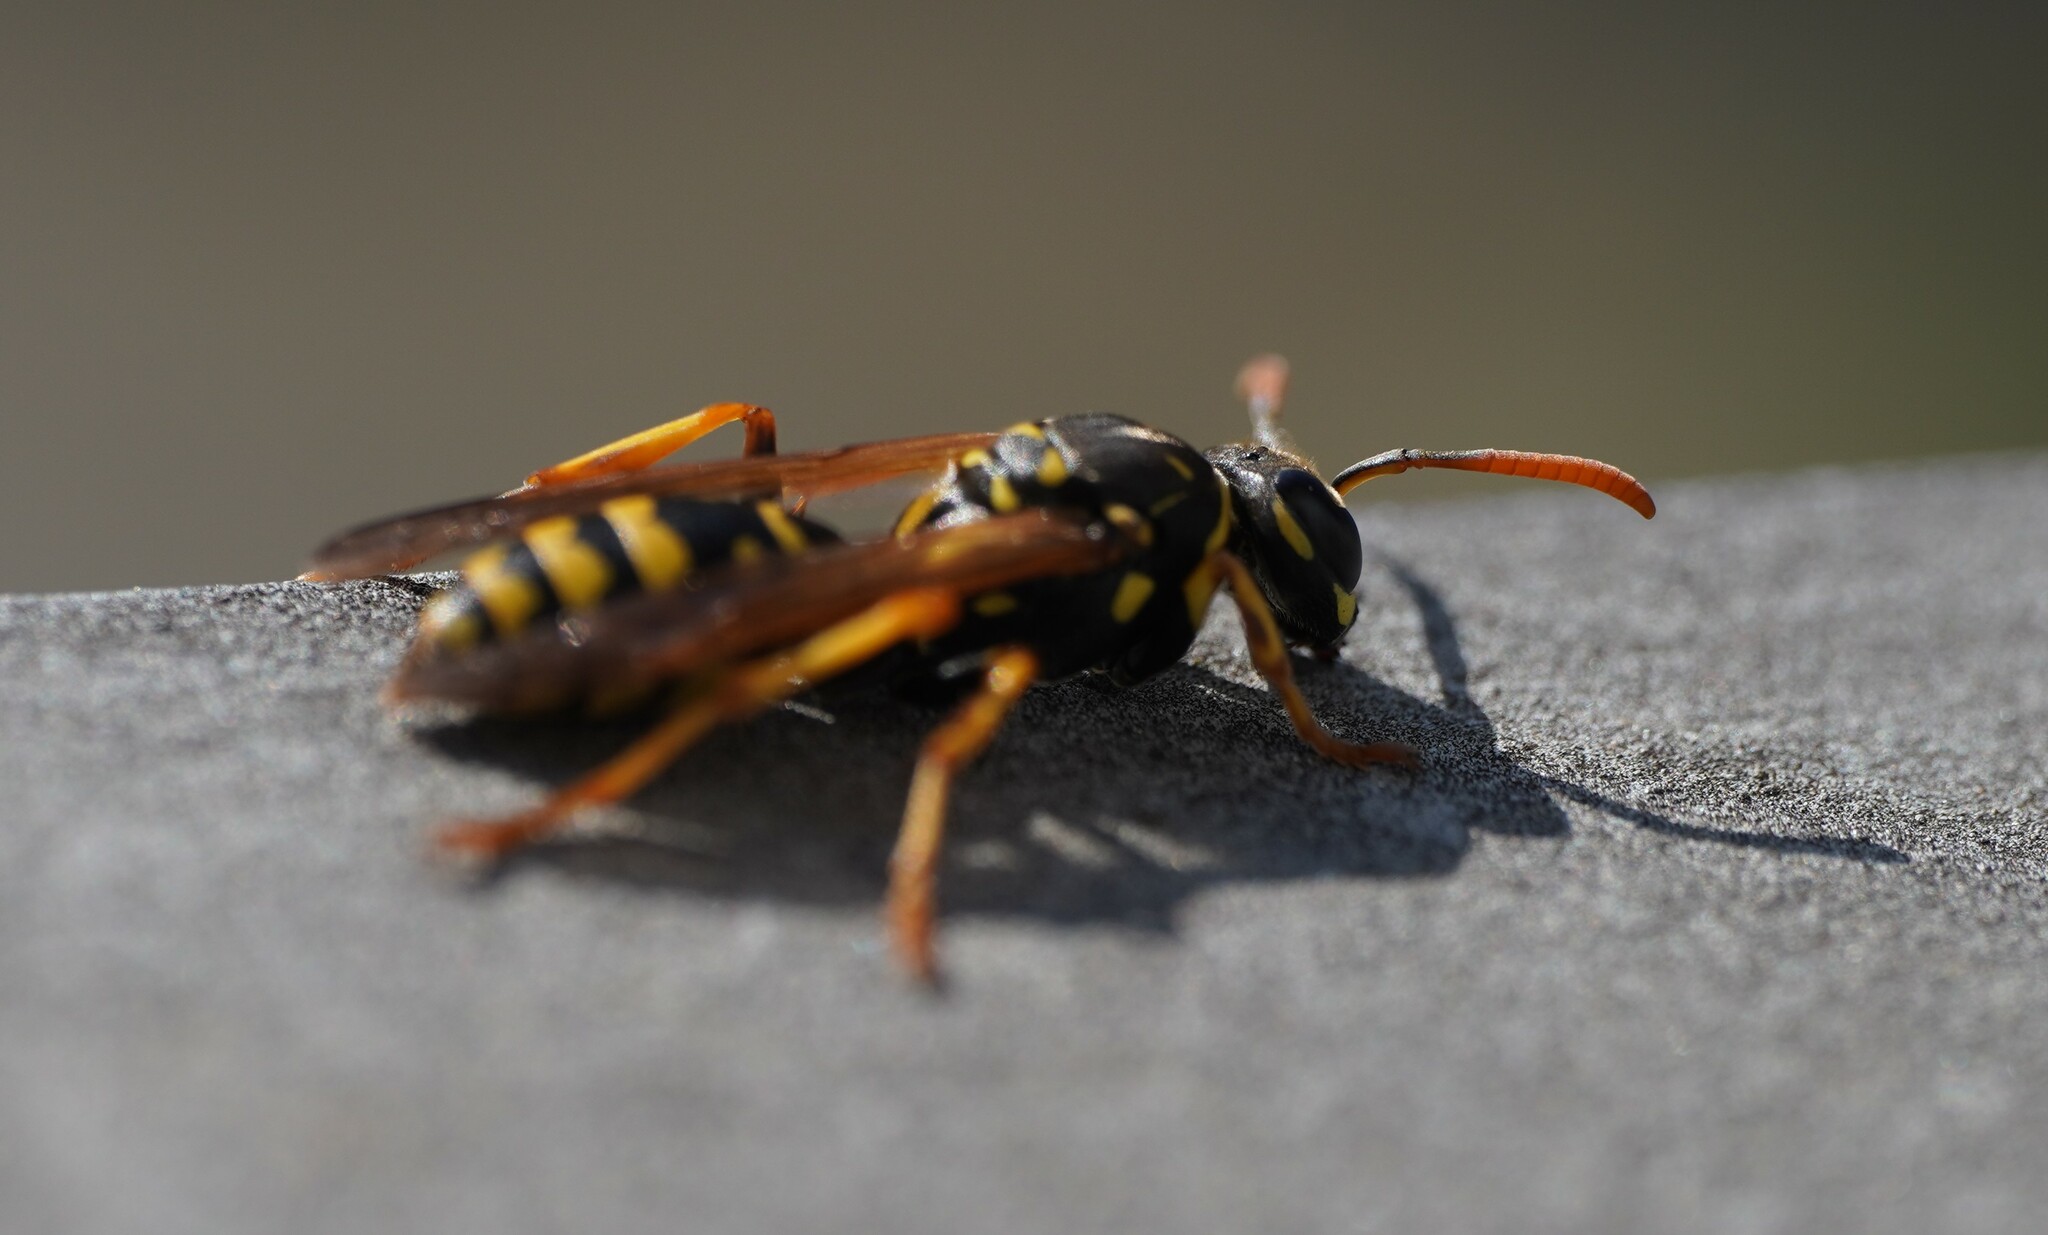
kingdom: Animalia
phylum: Arthropoda
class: Insecta
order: Hymenoptera
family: Eumenidae
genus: Polistes
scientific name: Polistes dominula
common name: Paper wasp
